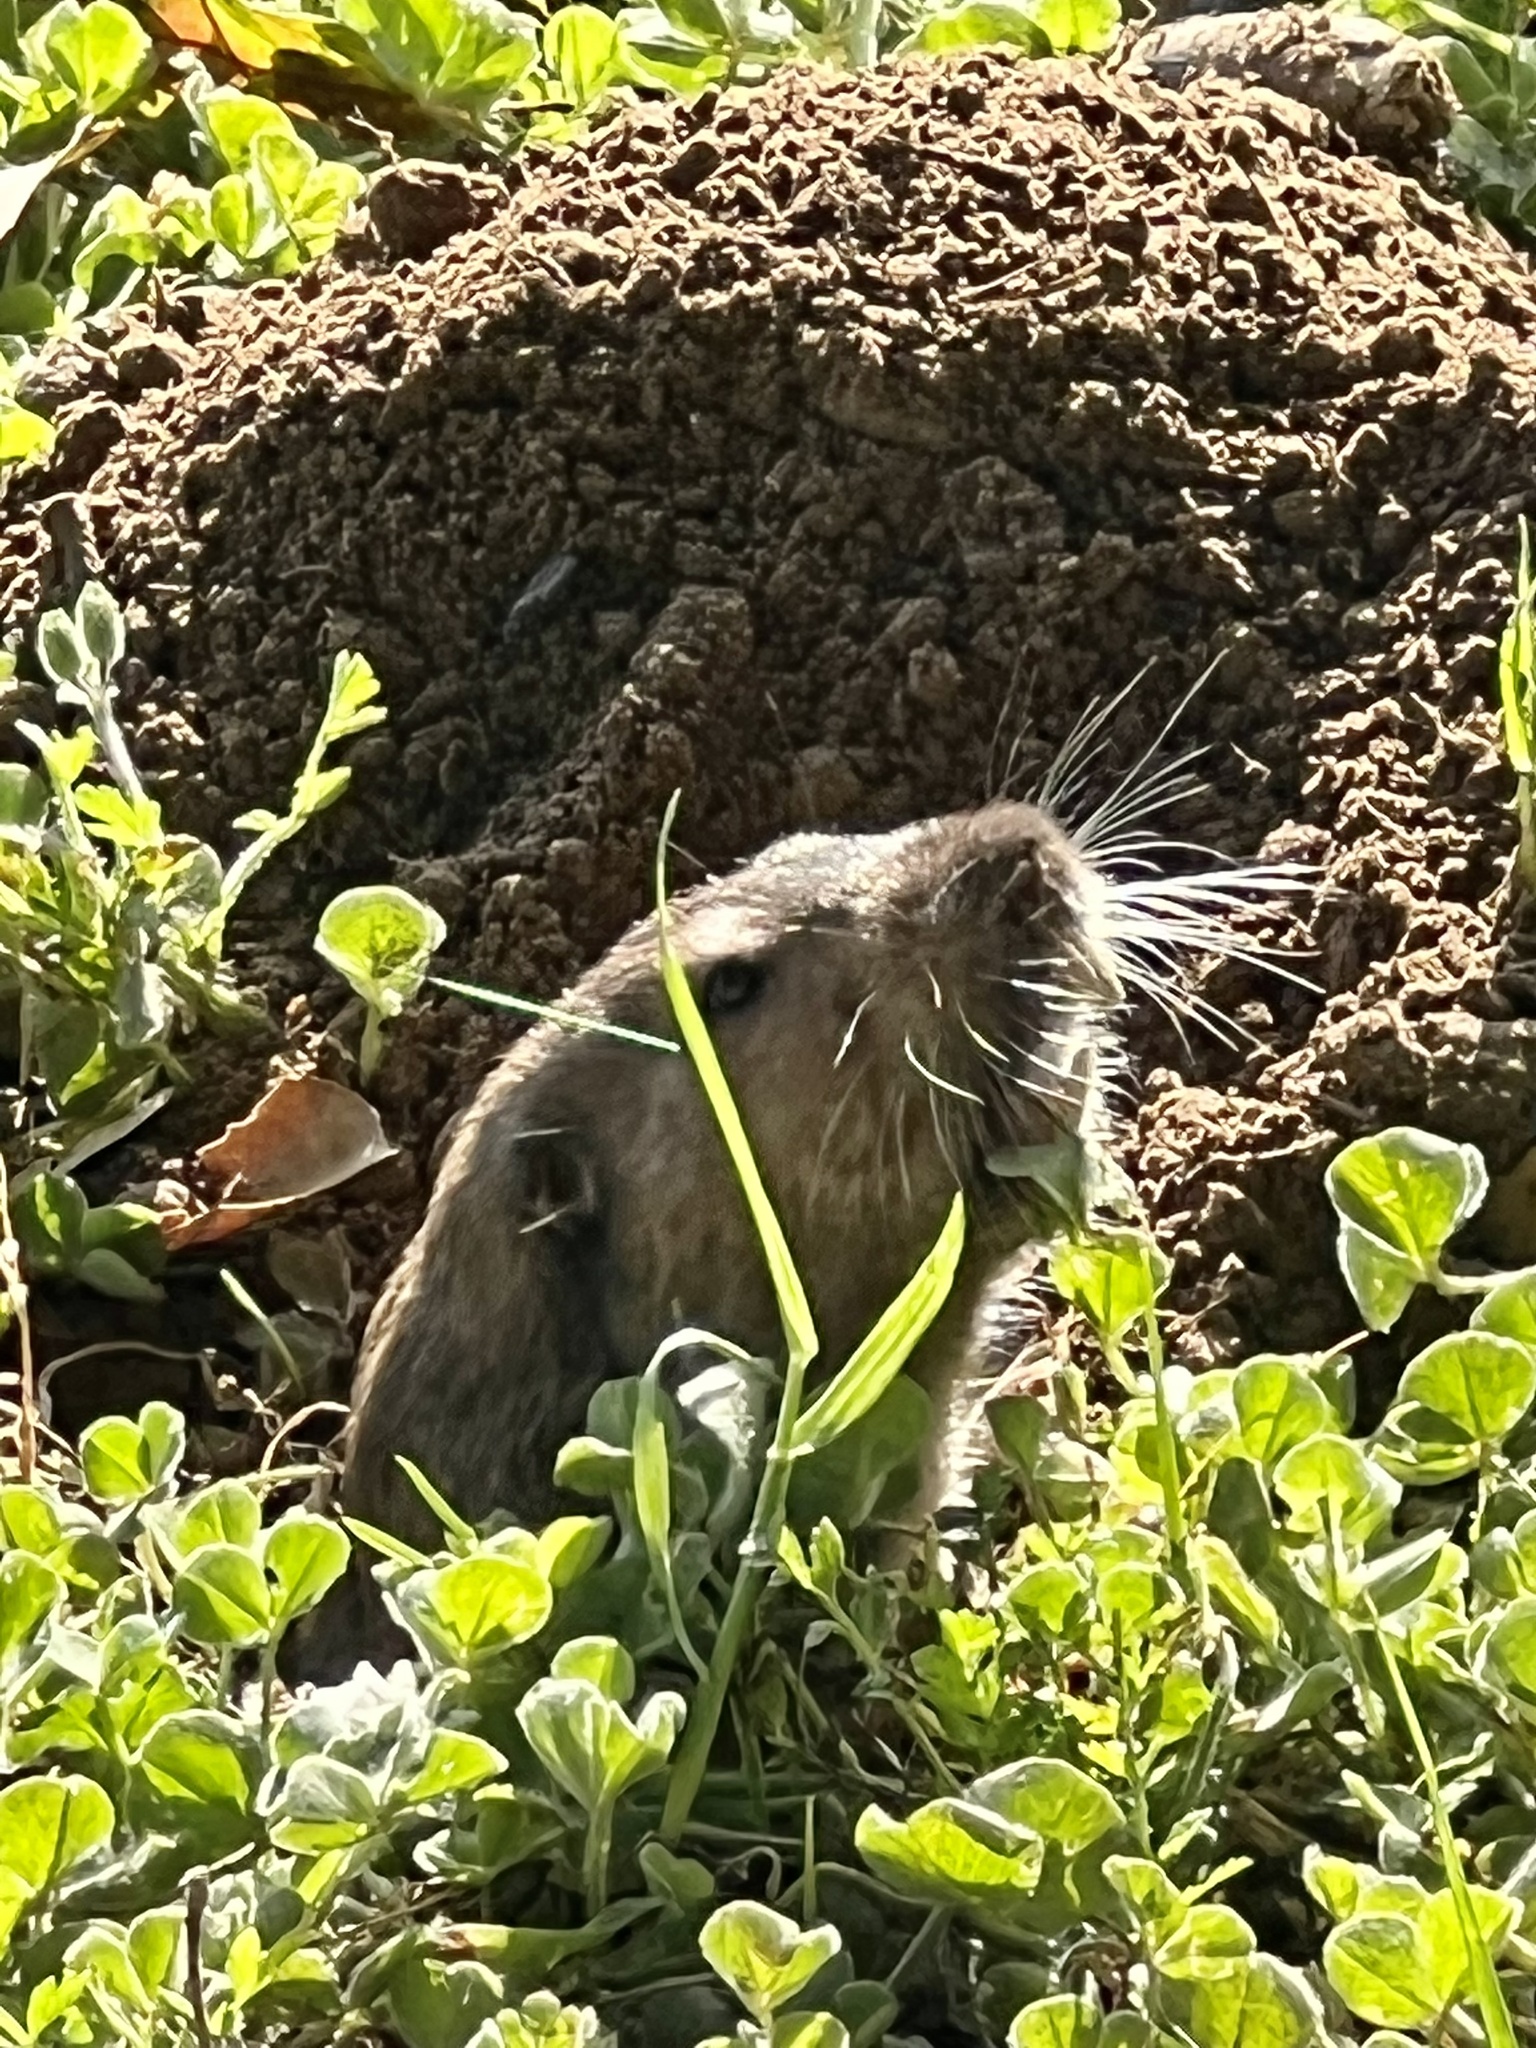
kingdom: Animalia
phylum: Chordata
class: Mammalia
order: Rodentia
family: Geomyidae
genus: Thomomys
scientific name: Thomomys bottae
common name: Botta's pocket gopher
